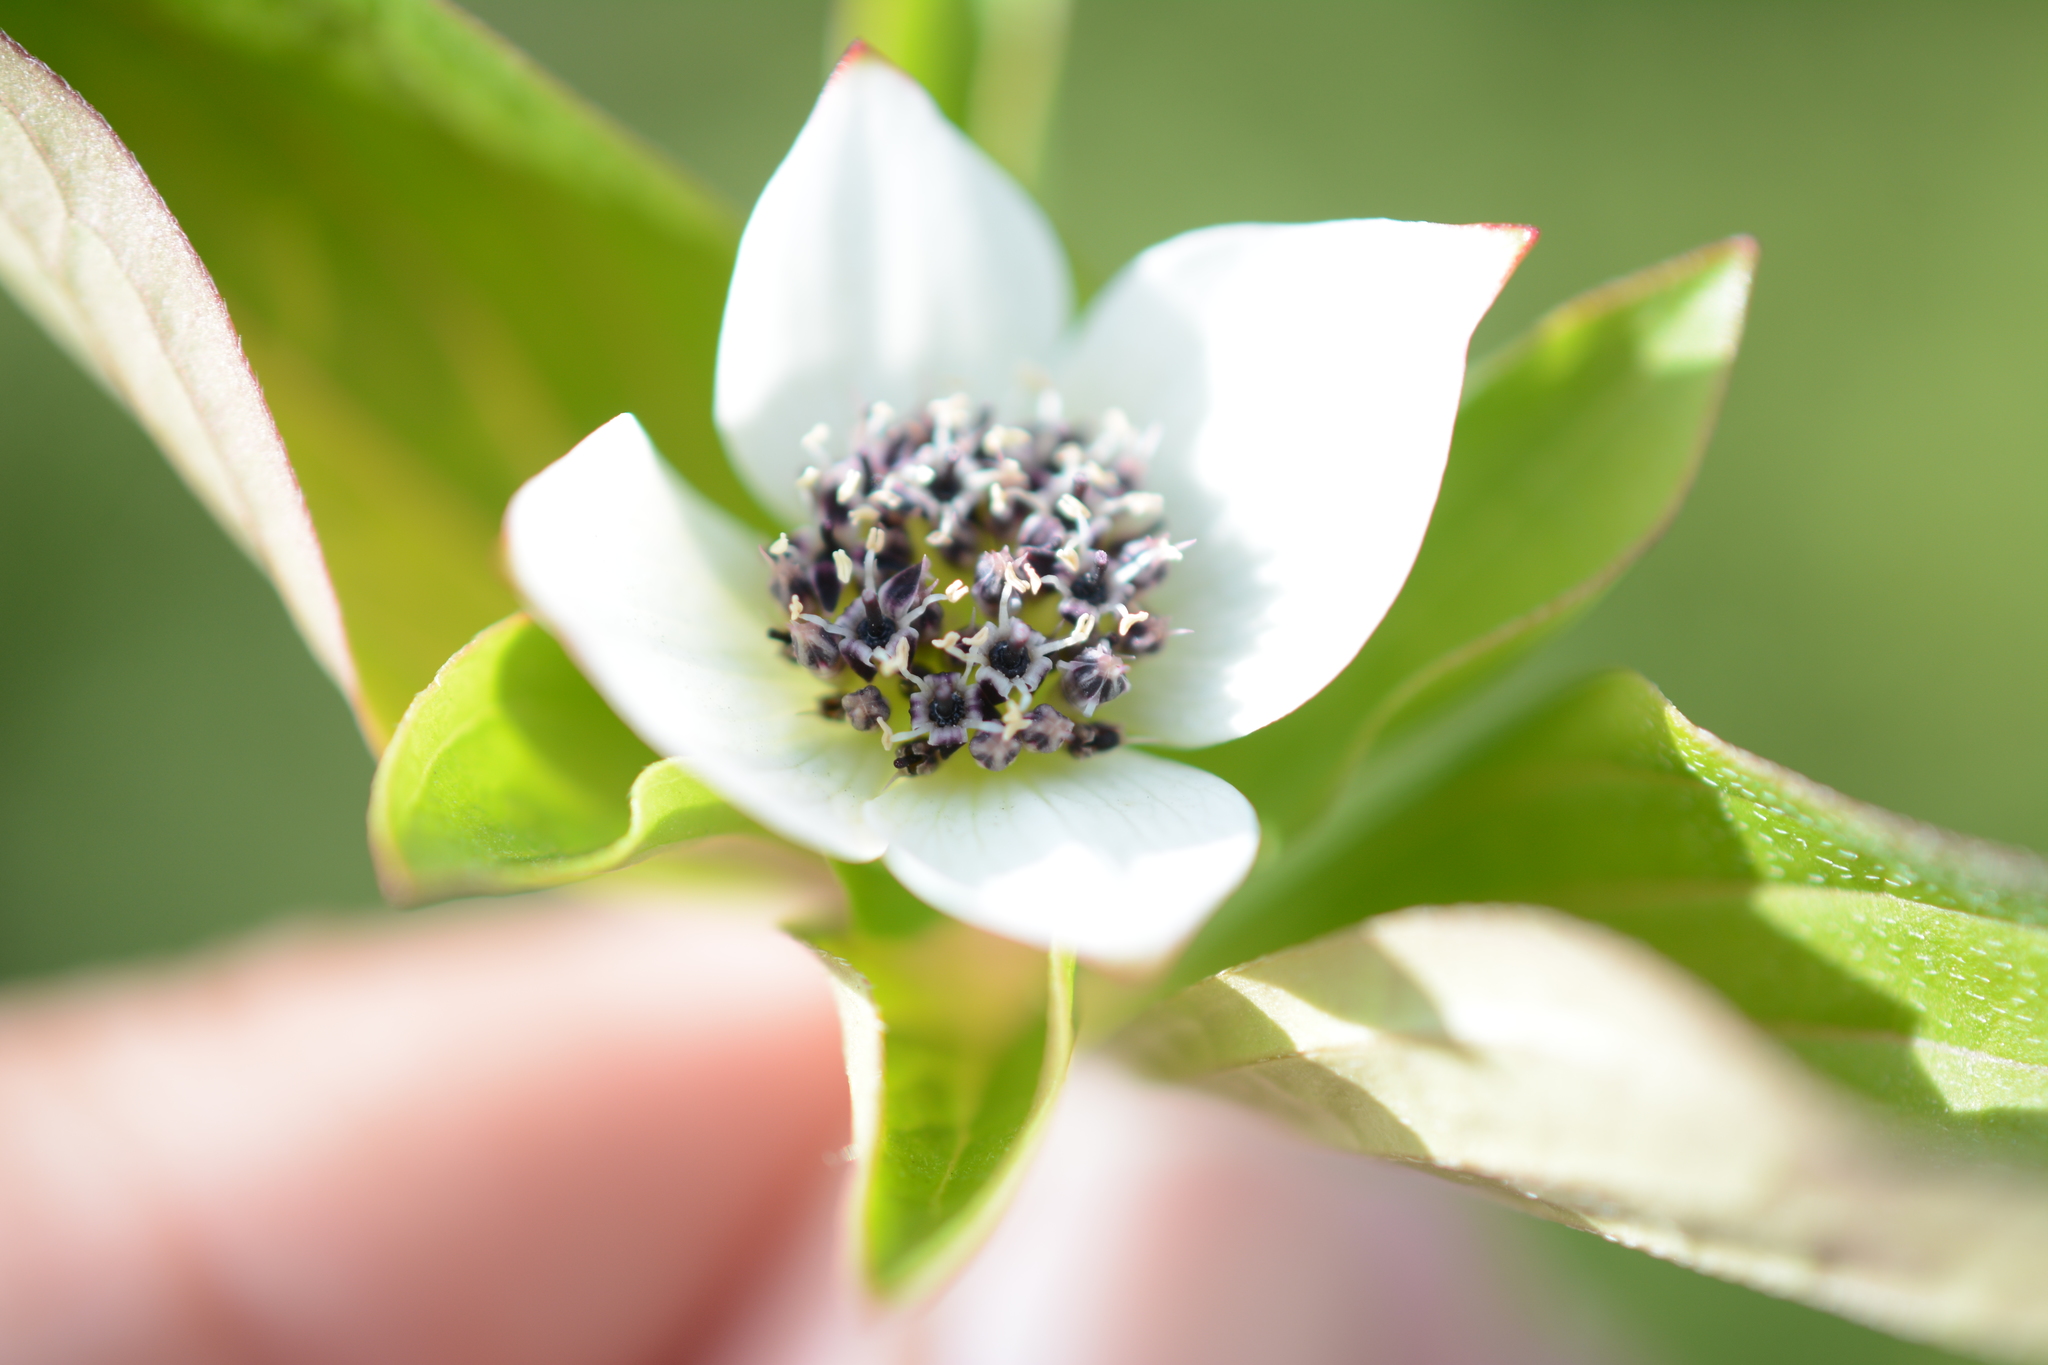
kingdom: Plantae
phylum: Tracheophyta
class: Magnoliopsida
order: Cornales
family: Cornaceae
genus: Cornus
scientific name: Cornus unalaschkensis
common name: Alaska bunchberry
